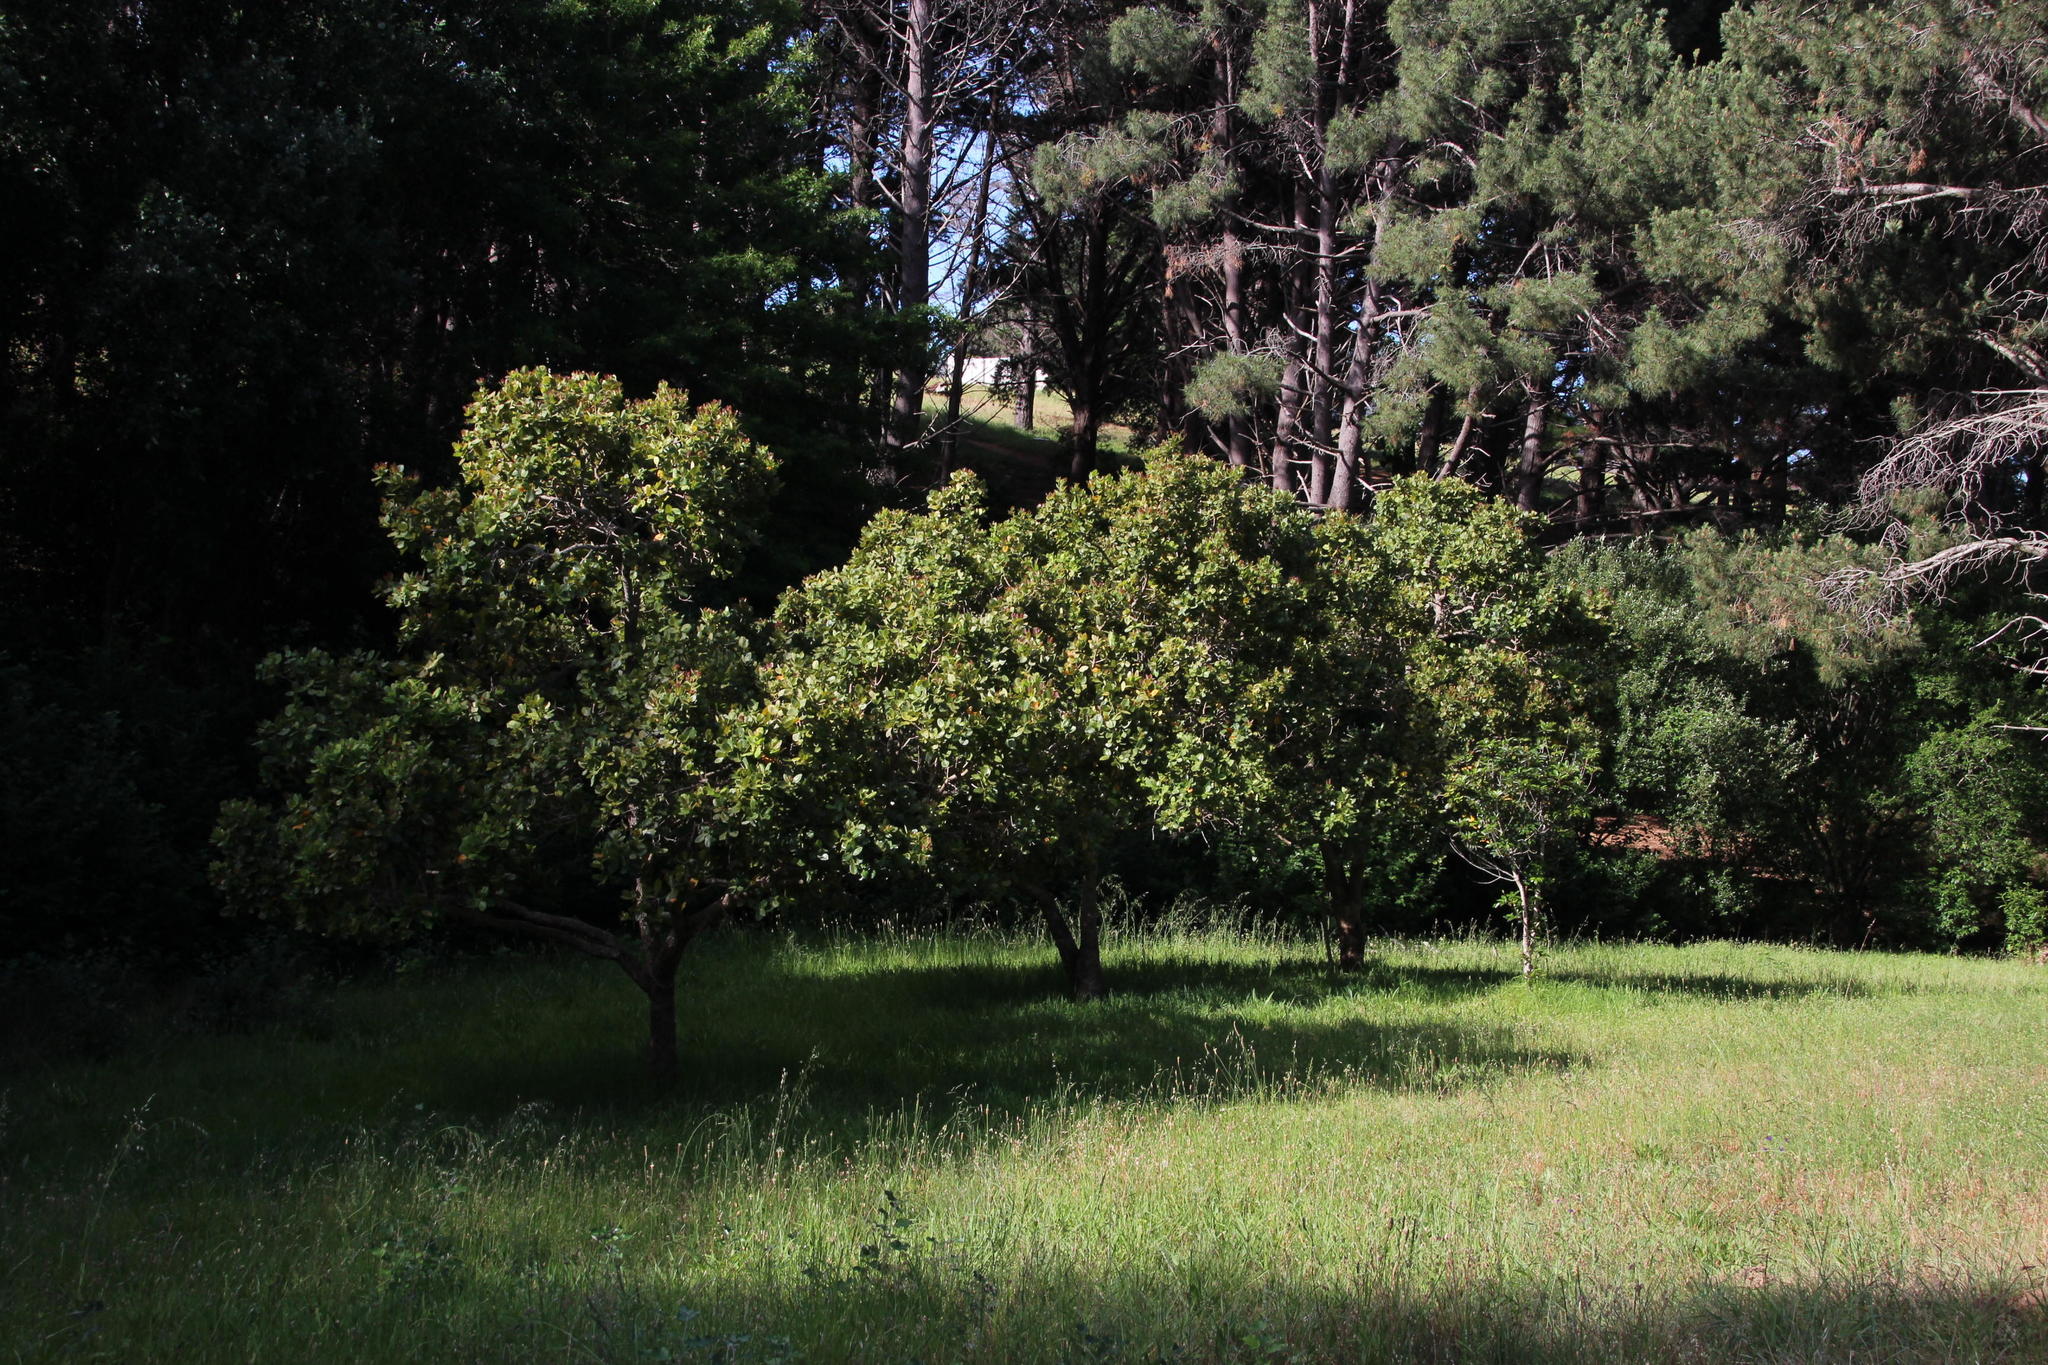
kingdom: Plantae
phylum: Tracheophyta
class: Magnoliopsida
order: Myrtales
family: Myrtaceae
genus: Syzygium
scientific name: Syzygium cordatum
